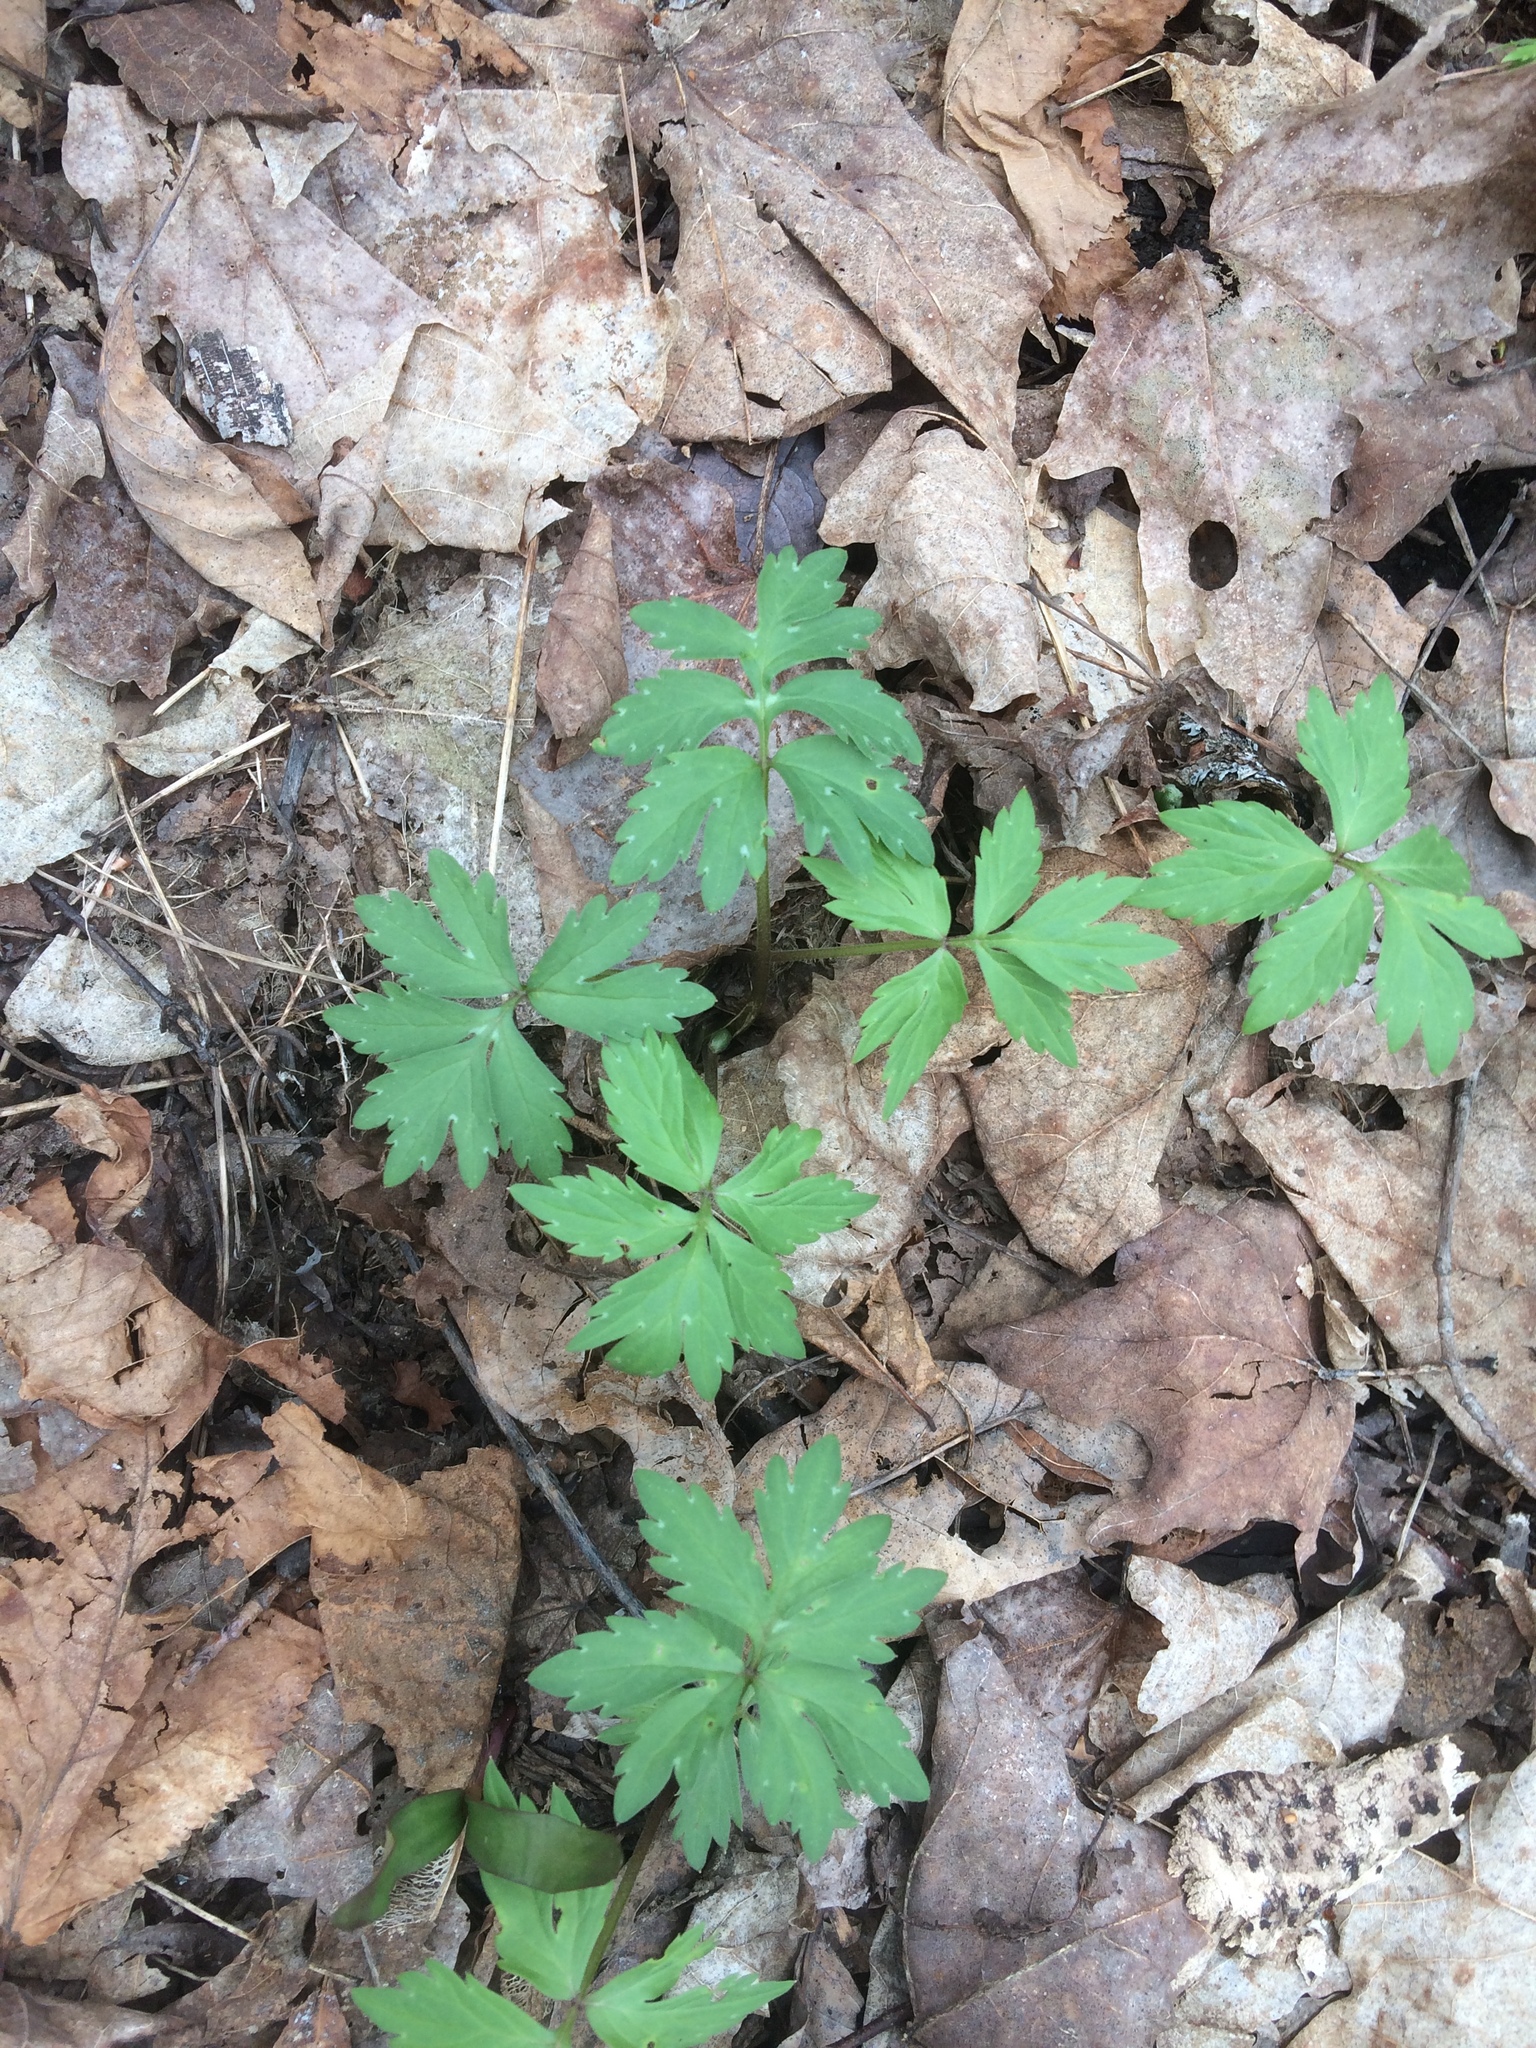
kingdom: Plantae
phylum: Tracheophyta
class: Magnoliopsida
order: Boraginales
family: Hydrophyllaceae
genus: Hydrophyllum
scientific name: Hydrophyllum virginianum
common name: Virginia waterleaf
